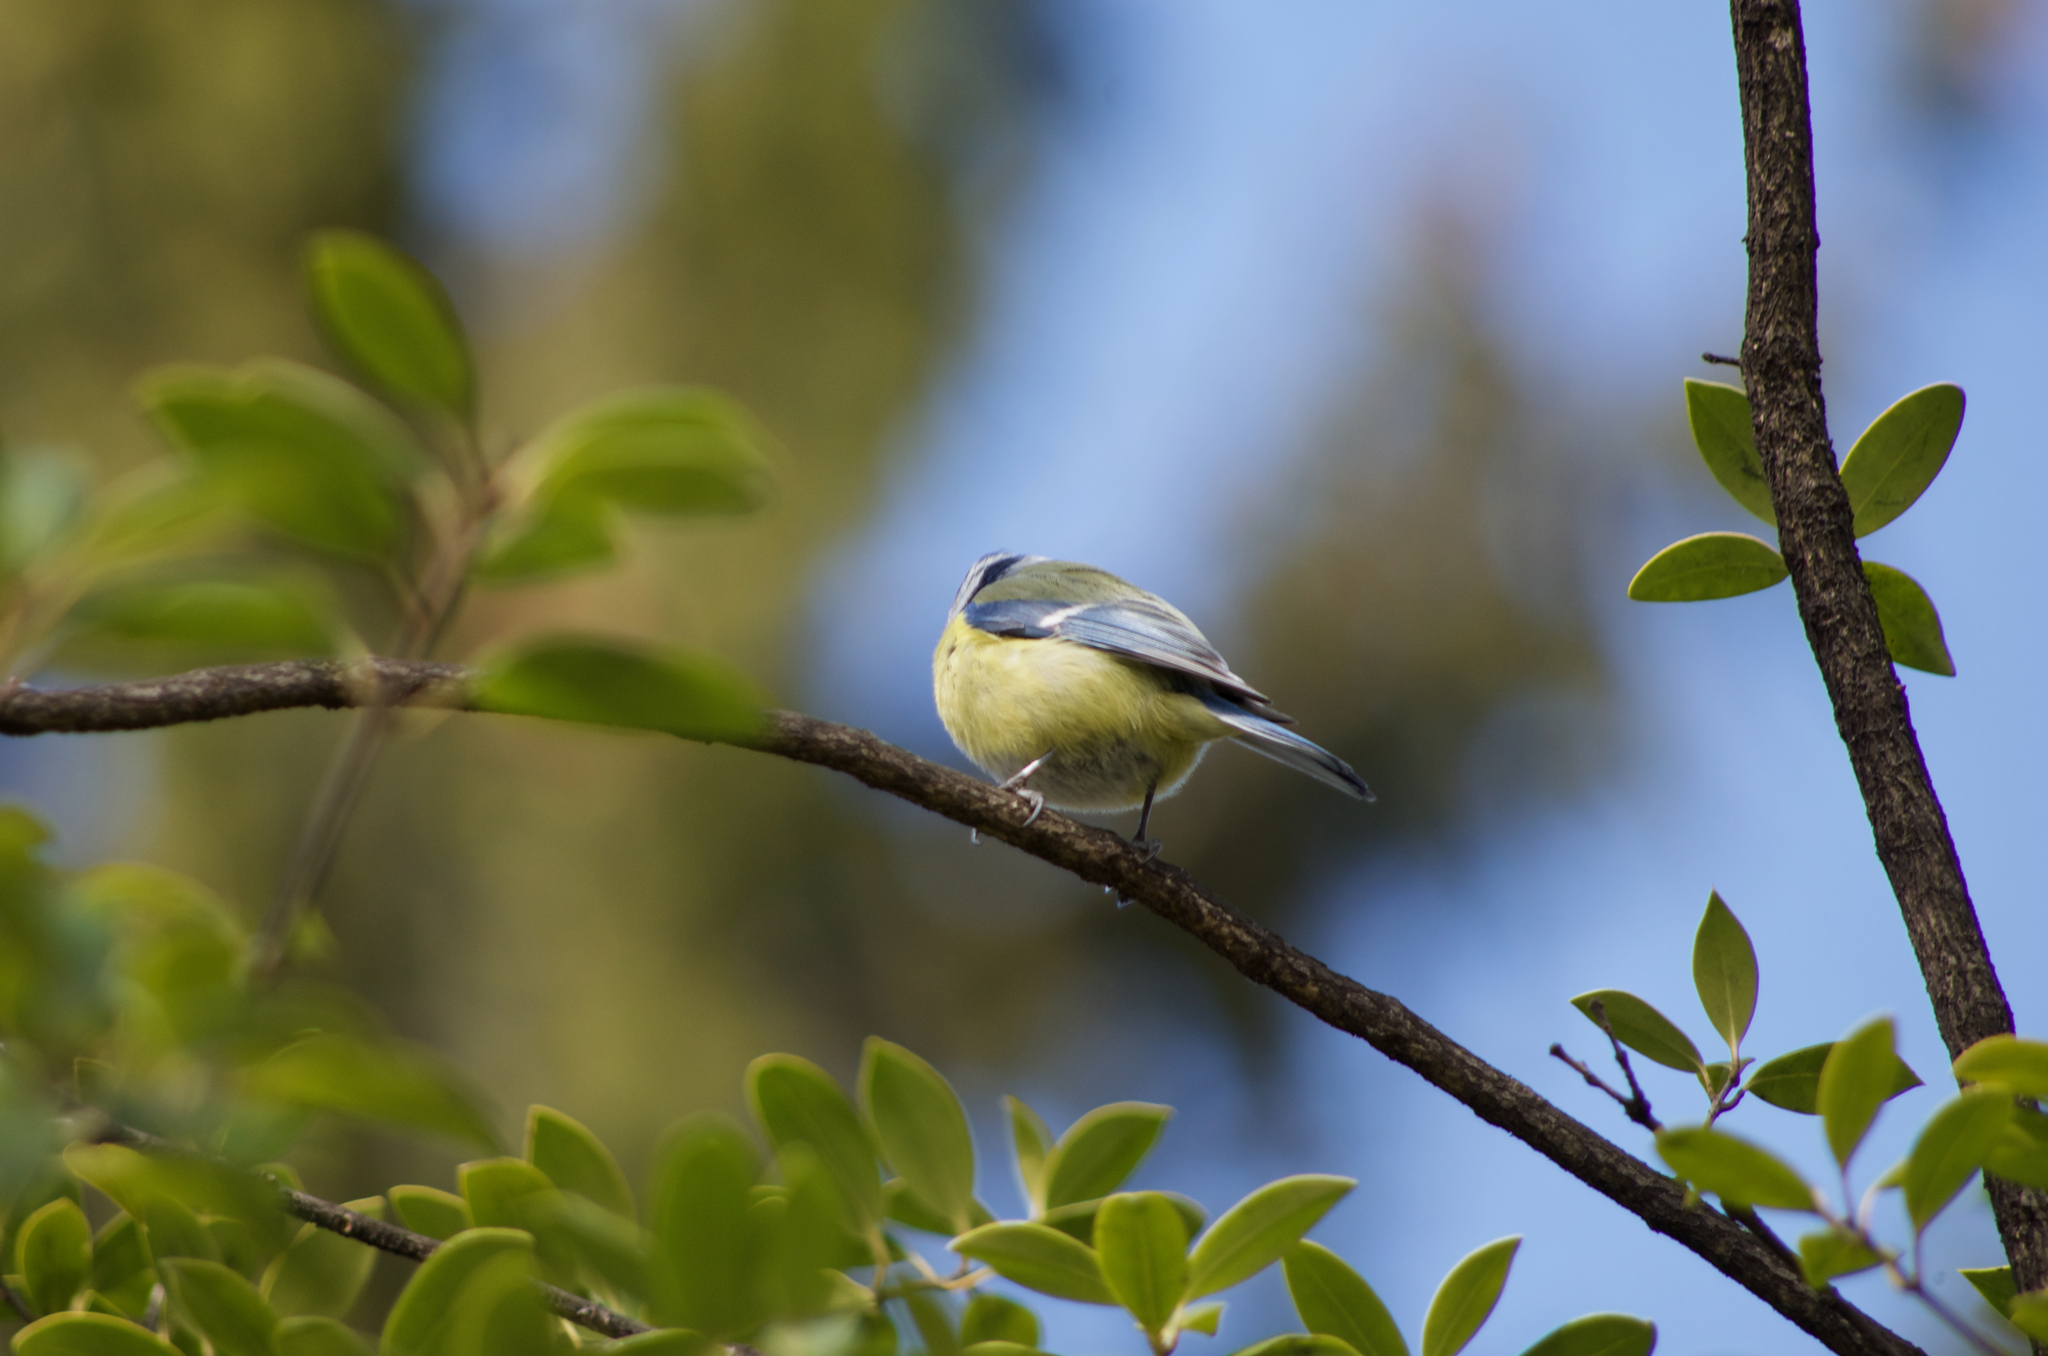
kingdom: Animalia
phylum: Chordata
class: Aves
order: Passeriformes
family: Paridae
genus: Cyanistes
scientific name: Cyanistes caeruleus
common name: Eurasian blue tit
